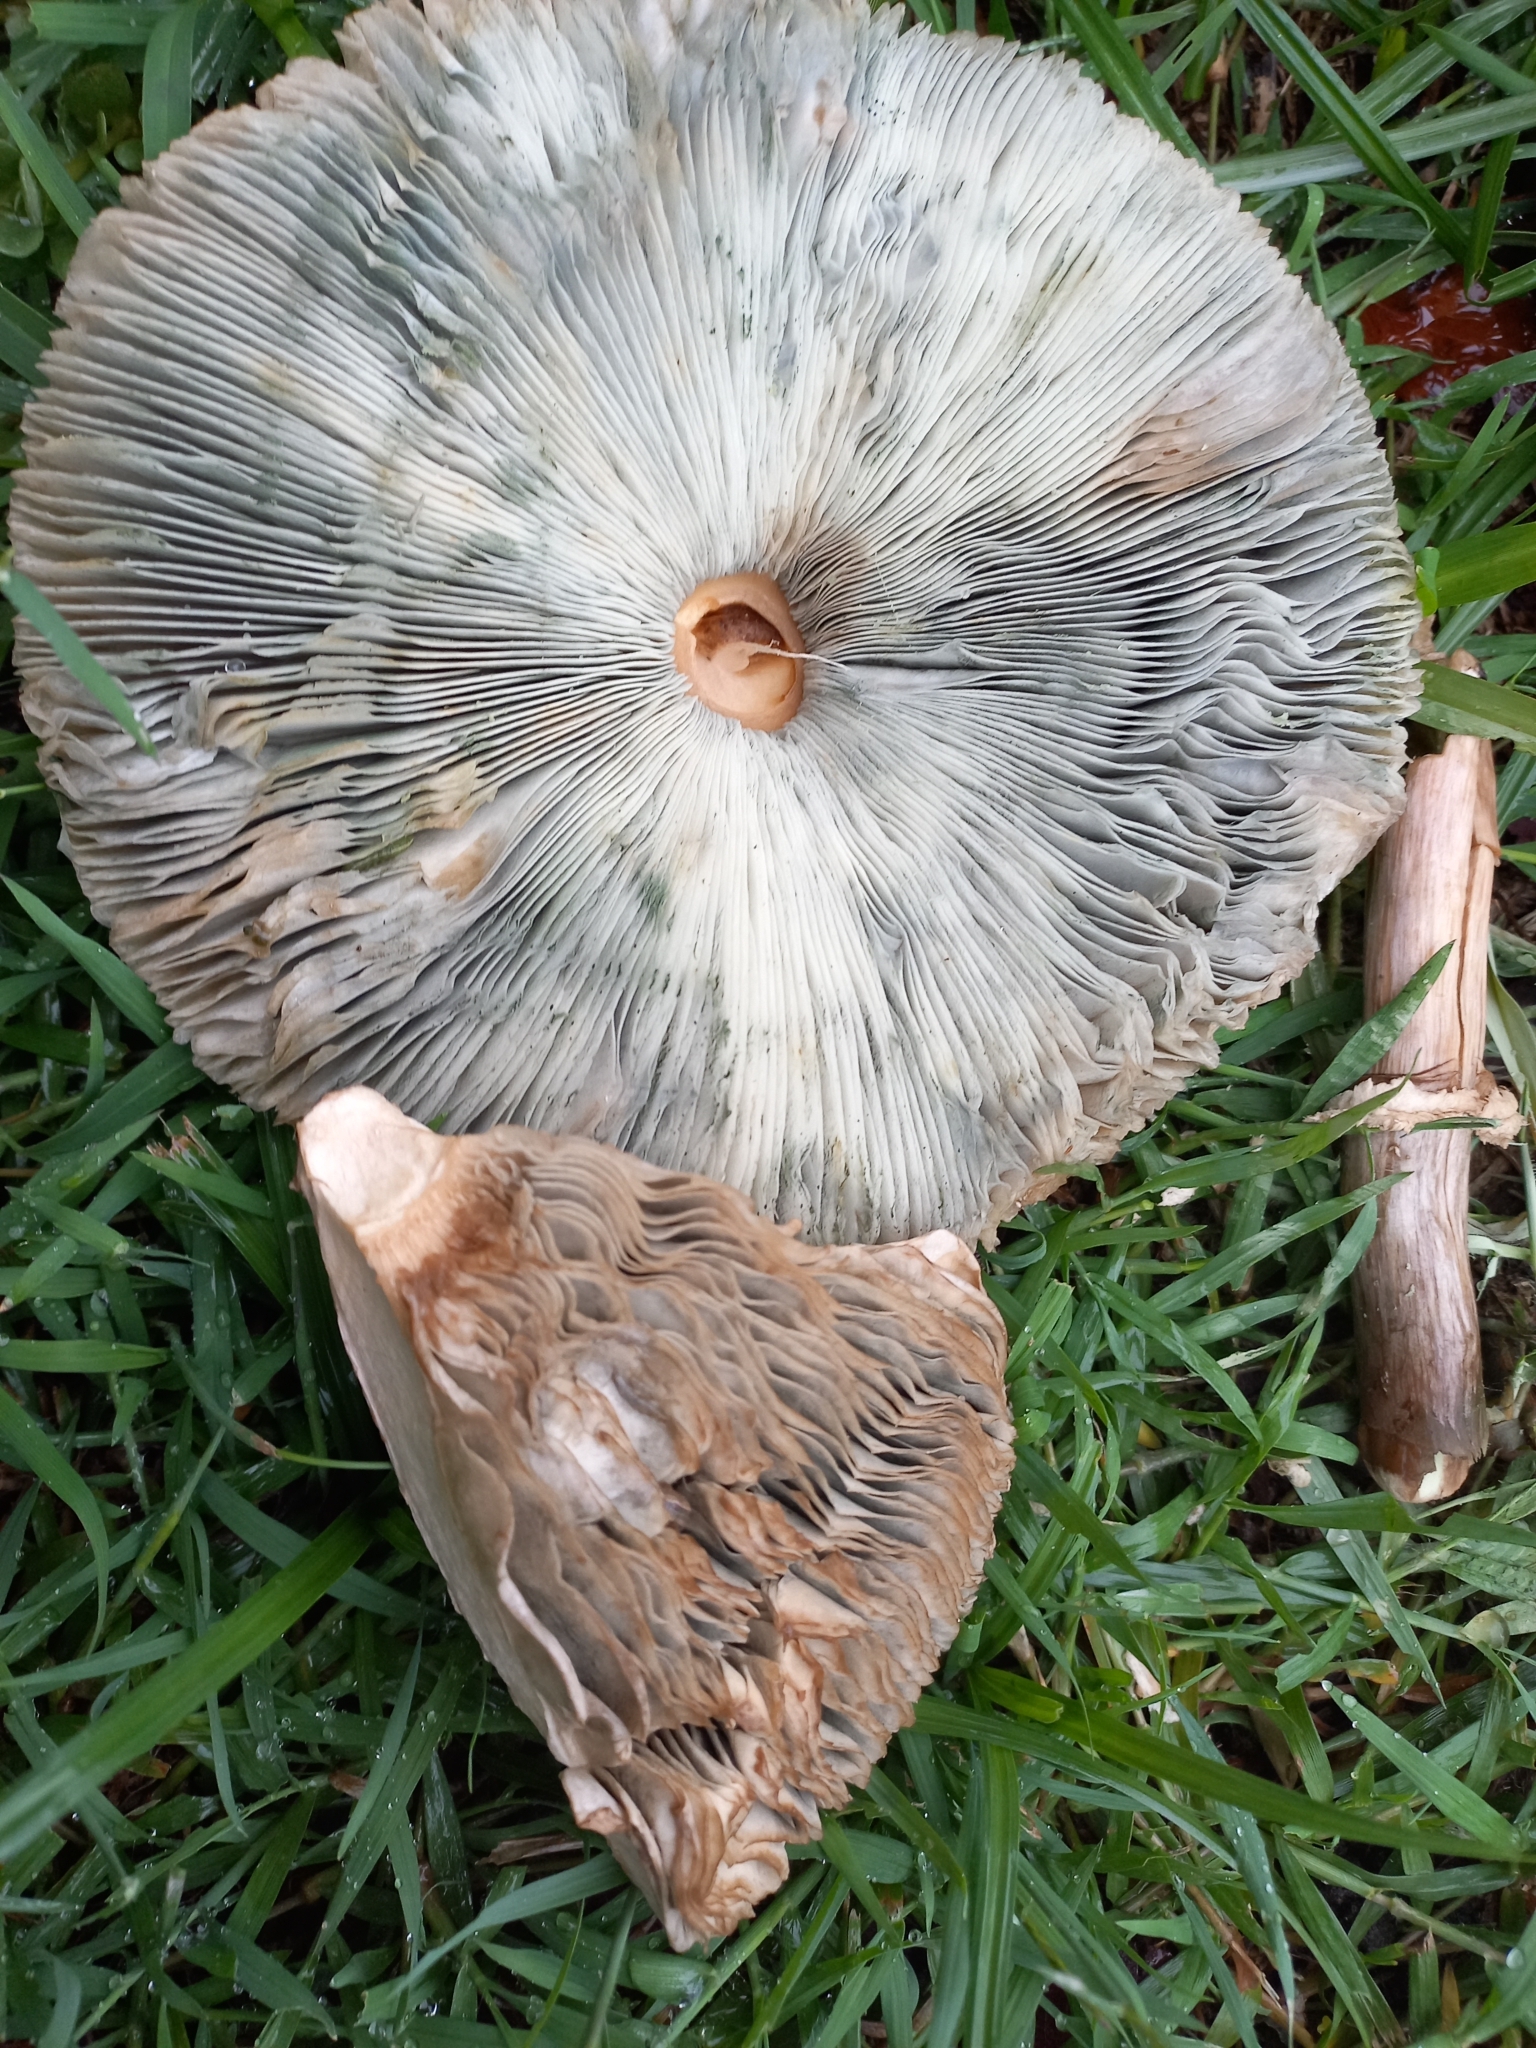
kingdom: Fungi
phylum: Basidiomycota
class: Agaricomycetes
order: Agaricales
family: Agaricaceae
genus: Chlorophyllum
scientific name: Chlorophyllum molybdites
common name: False parasol
